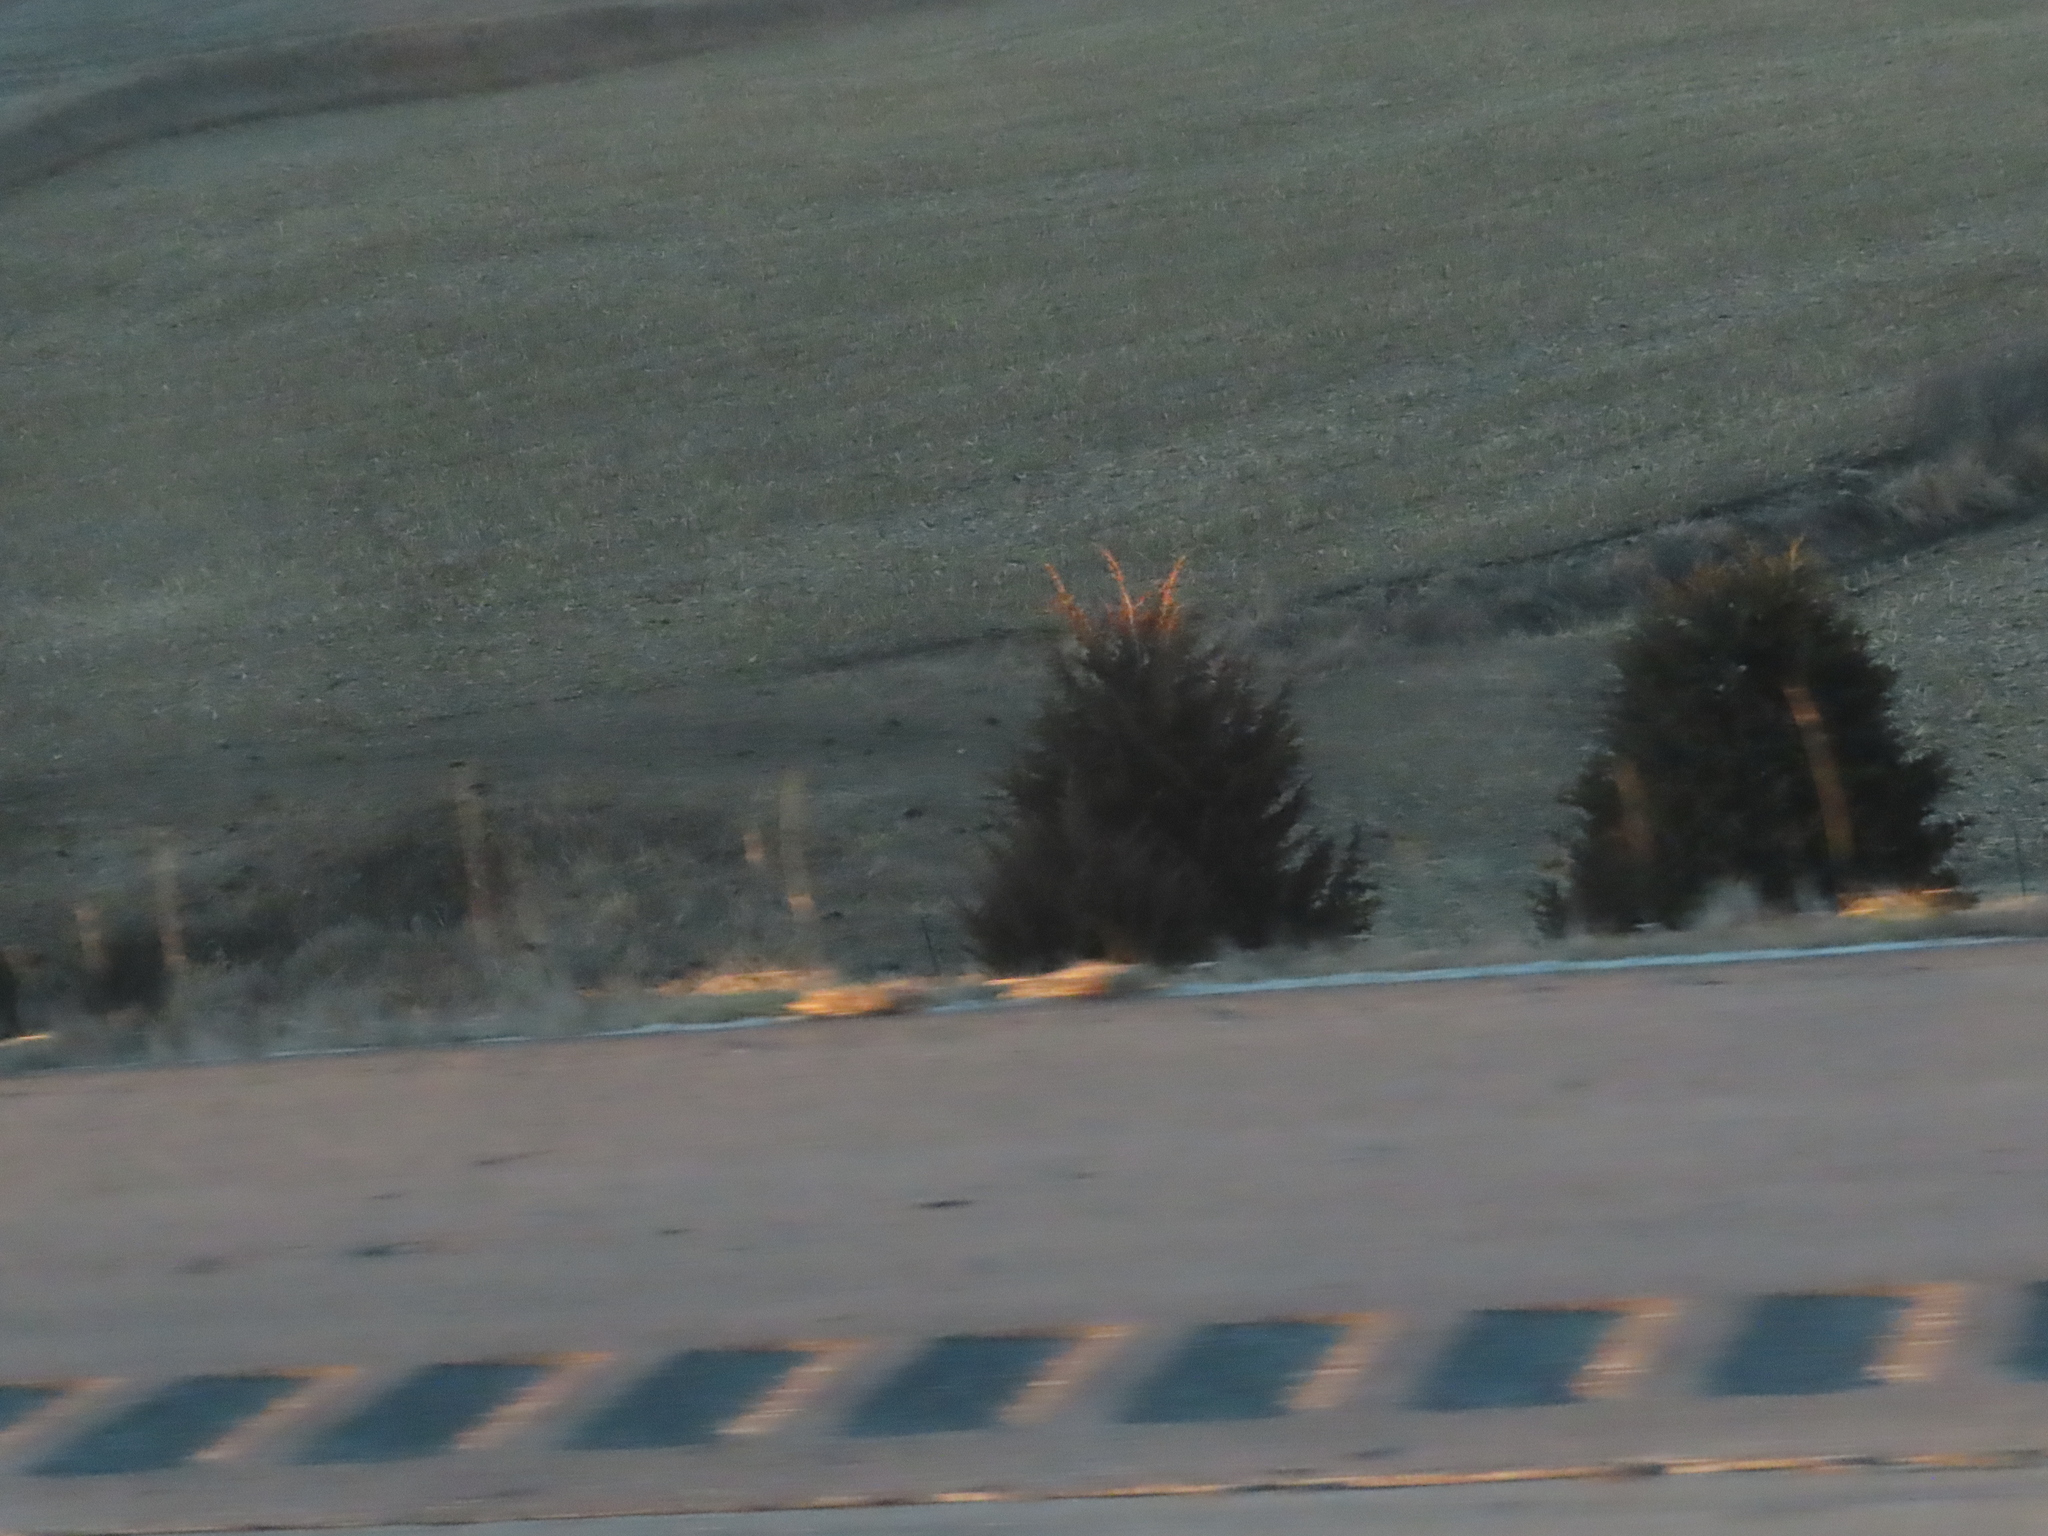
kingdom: Plantae
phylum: Tracheophyta
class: Pinopsida
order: Pinales
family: Cupressaceae
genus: Juniperus
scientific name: Juniperus virginiana
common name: Red juniper
